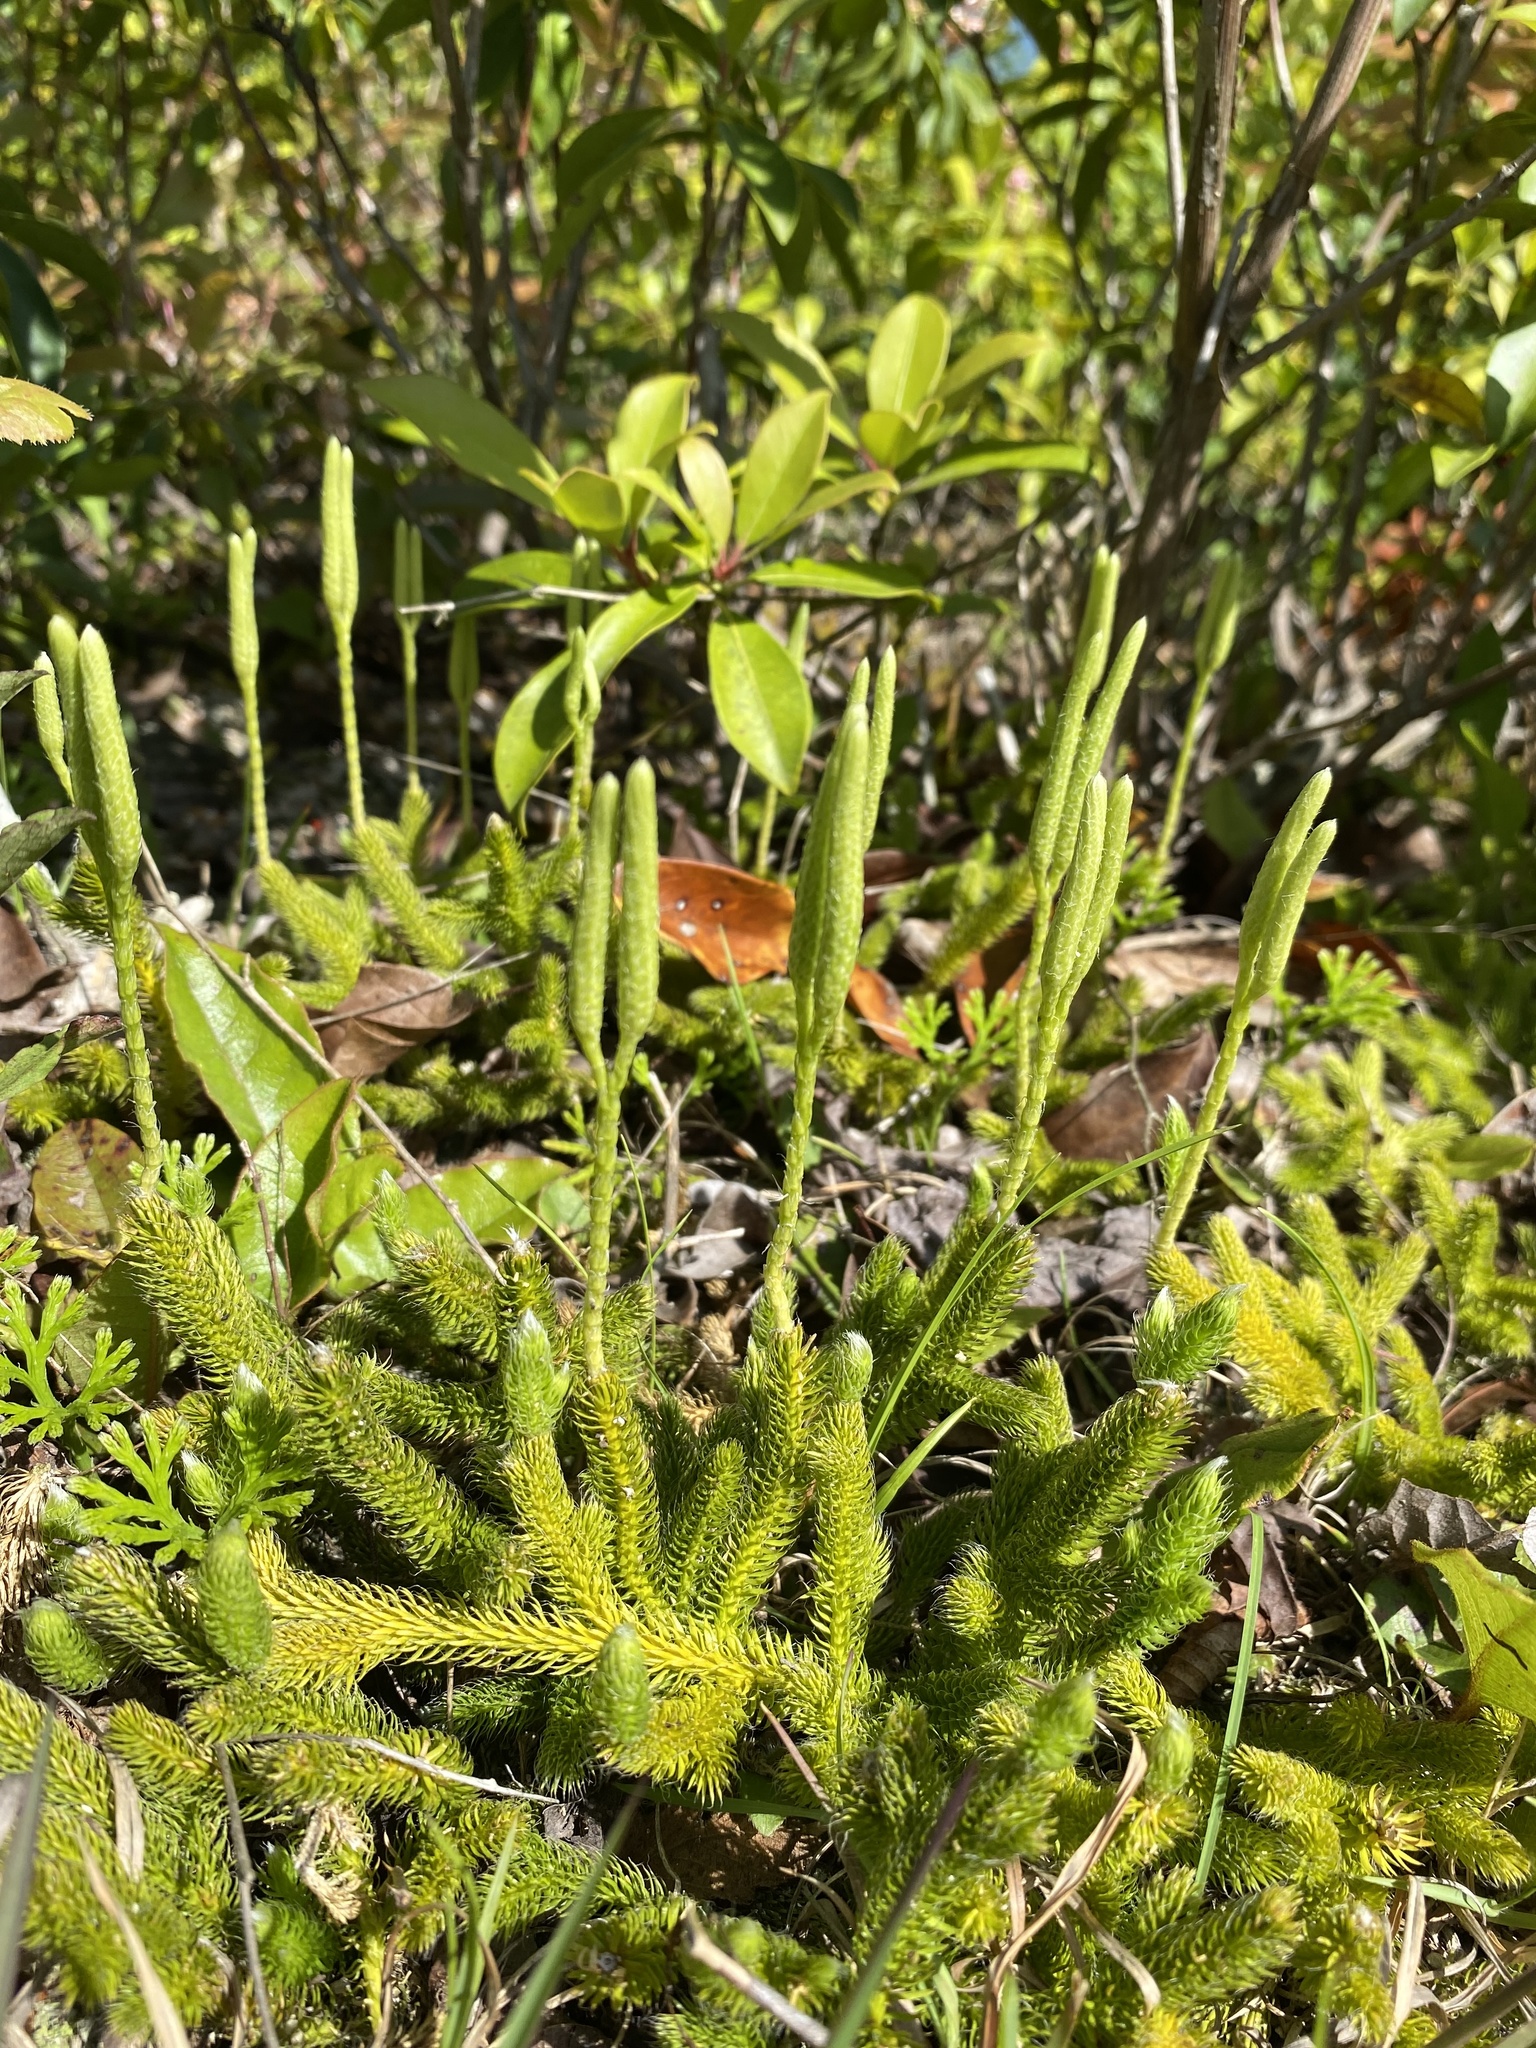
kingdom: Plantae
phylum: Tracheophyta
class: Lycopodiopsida
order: Lycopodiales
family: Lycopodiaceae
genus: Lycopodium
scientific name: Lycopodium clavatum
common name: Stag's-horn clubmoss
